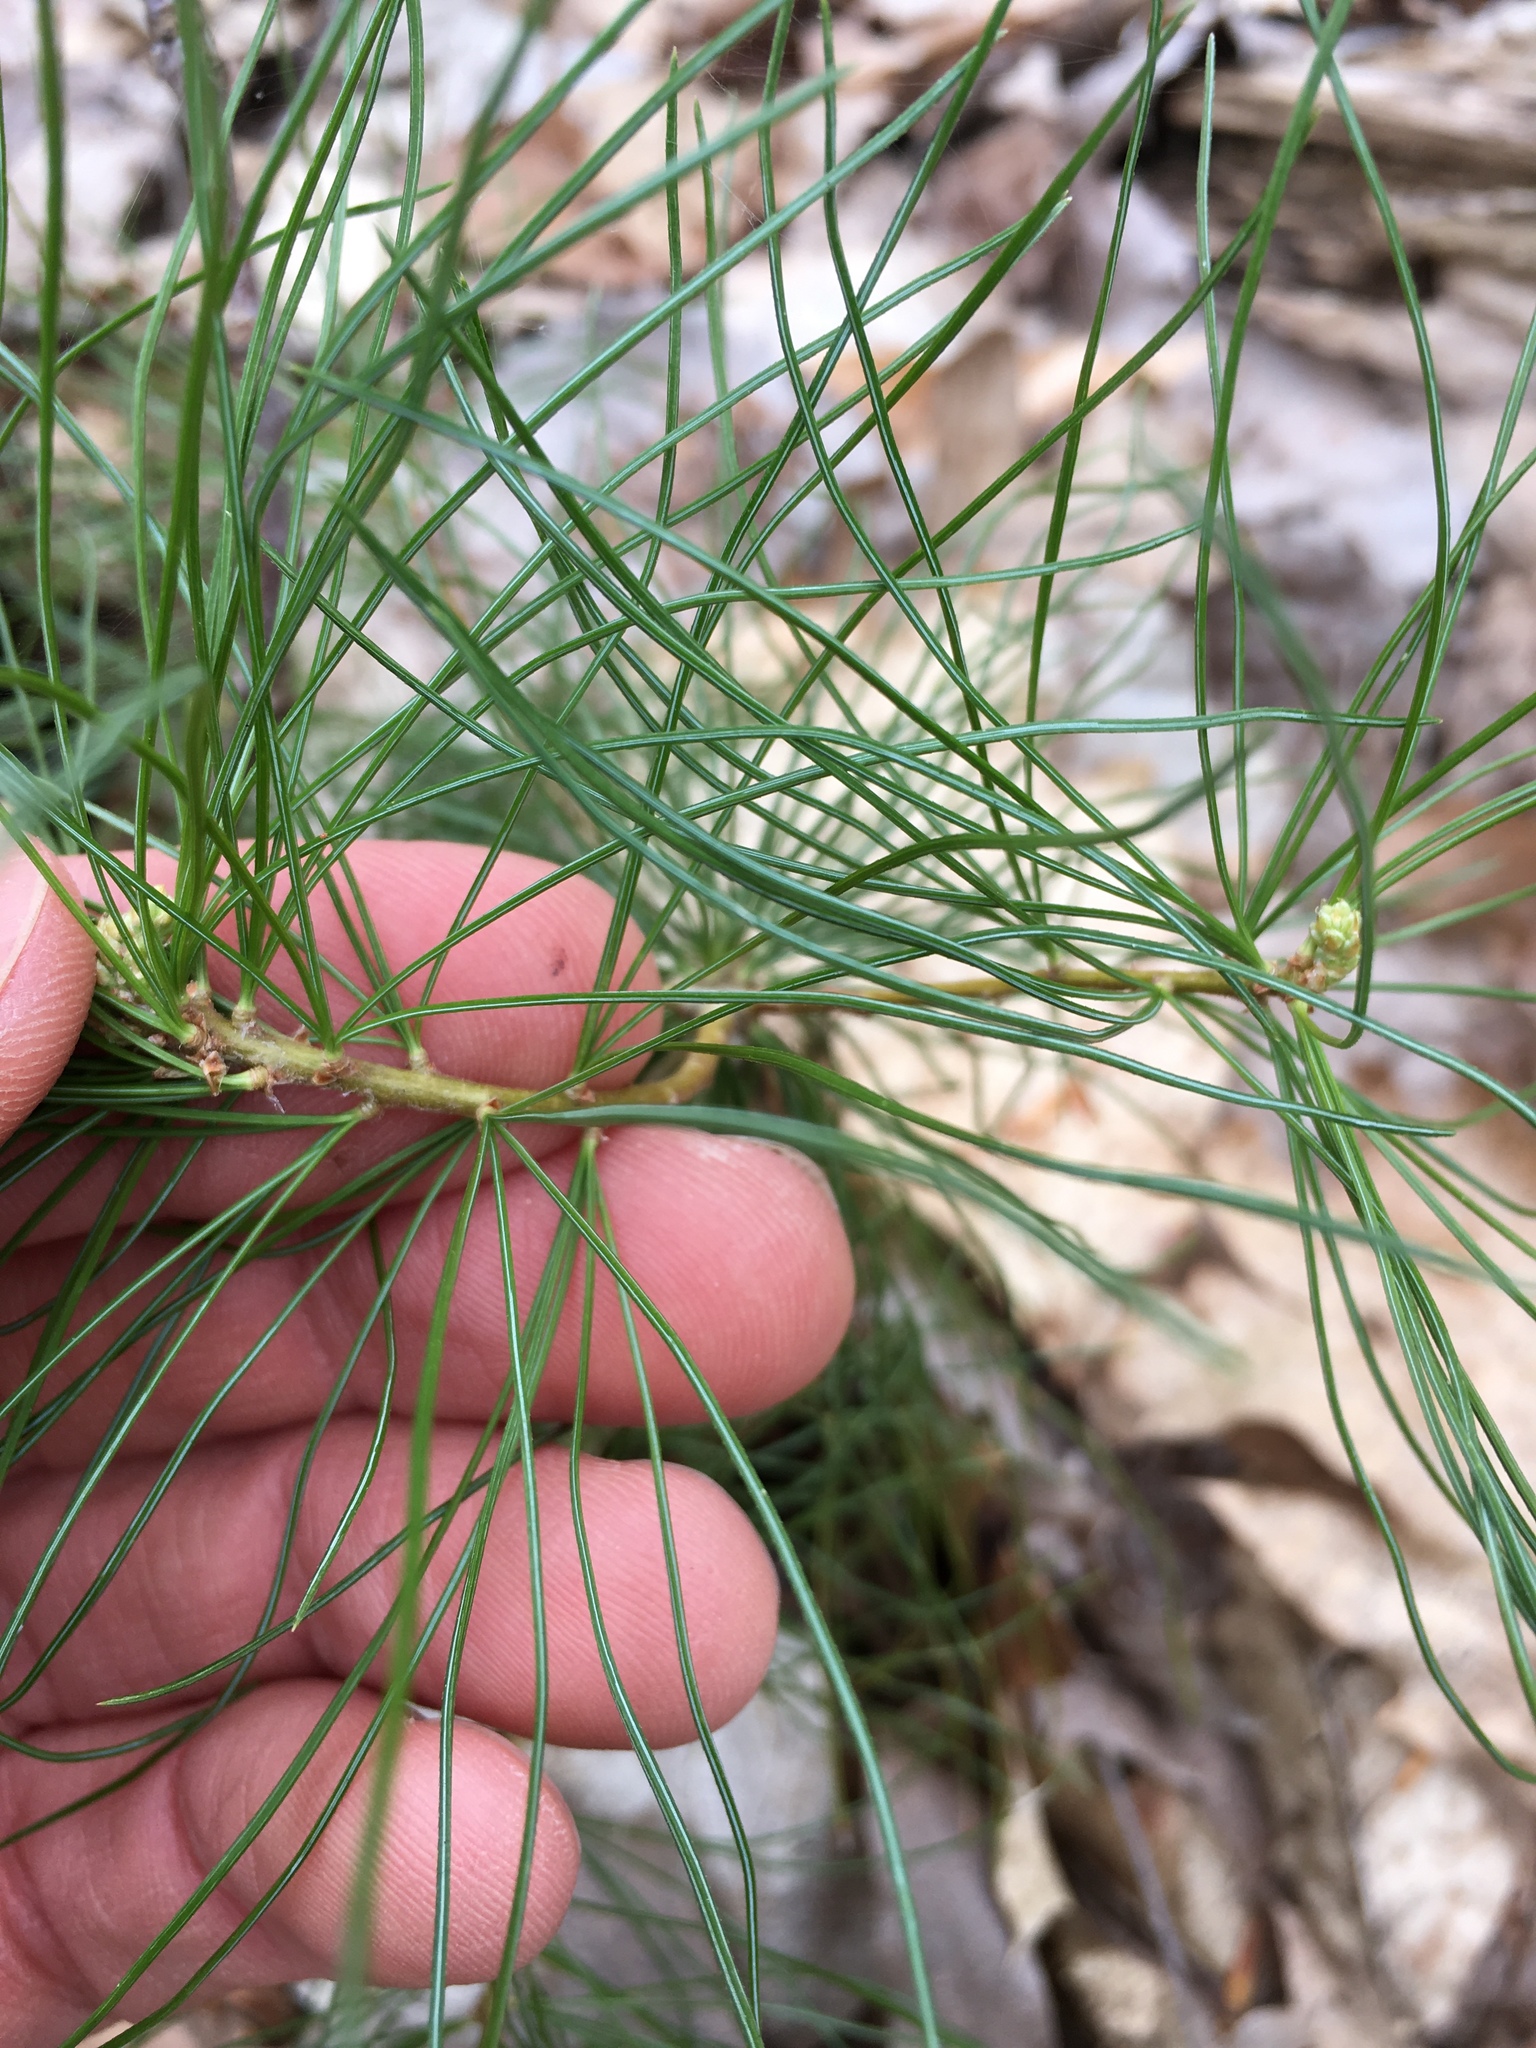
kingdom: Plantae
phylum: Tracheophyta
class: Pinopsida
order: Pinales
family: Pinaceae
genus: Pinus
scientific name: Pinus strobus
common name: Weymouth pine
